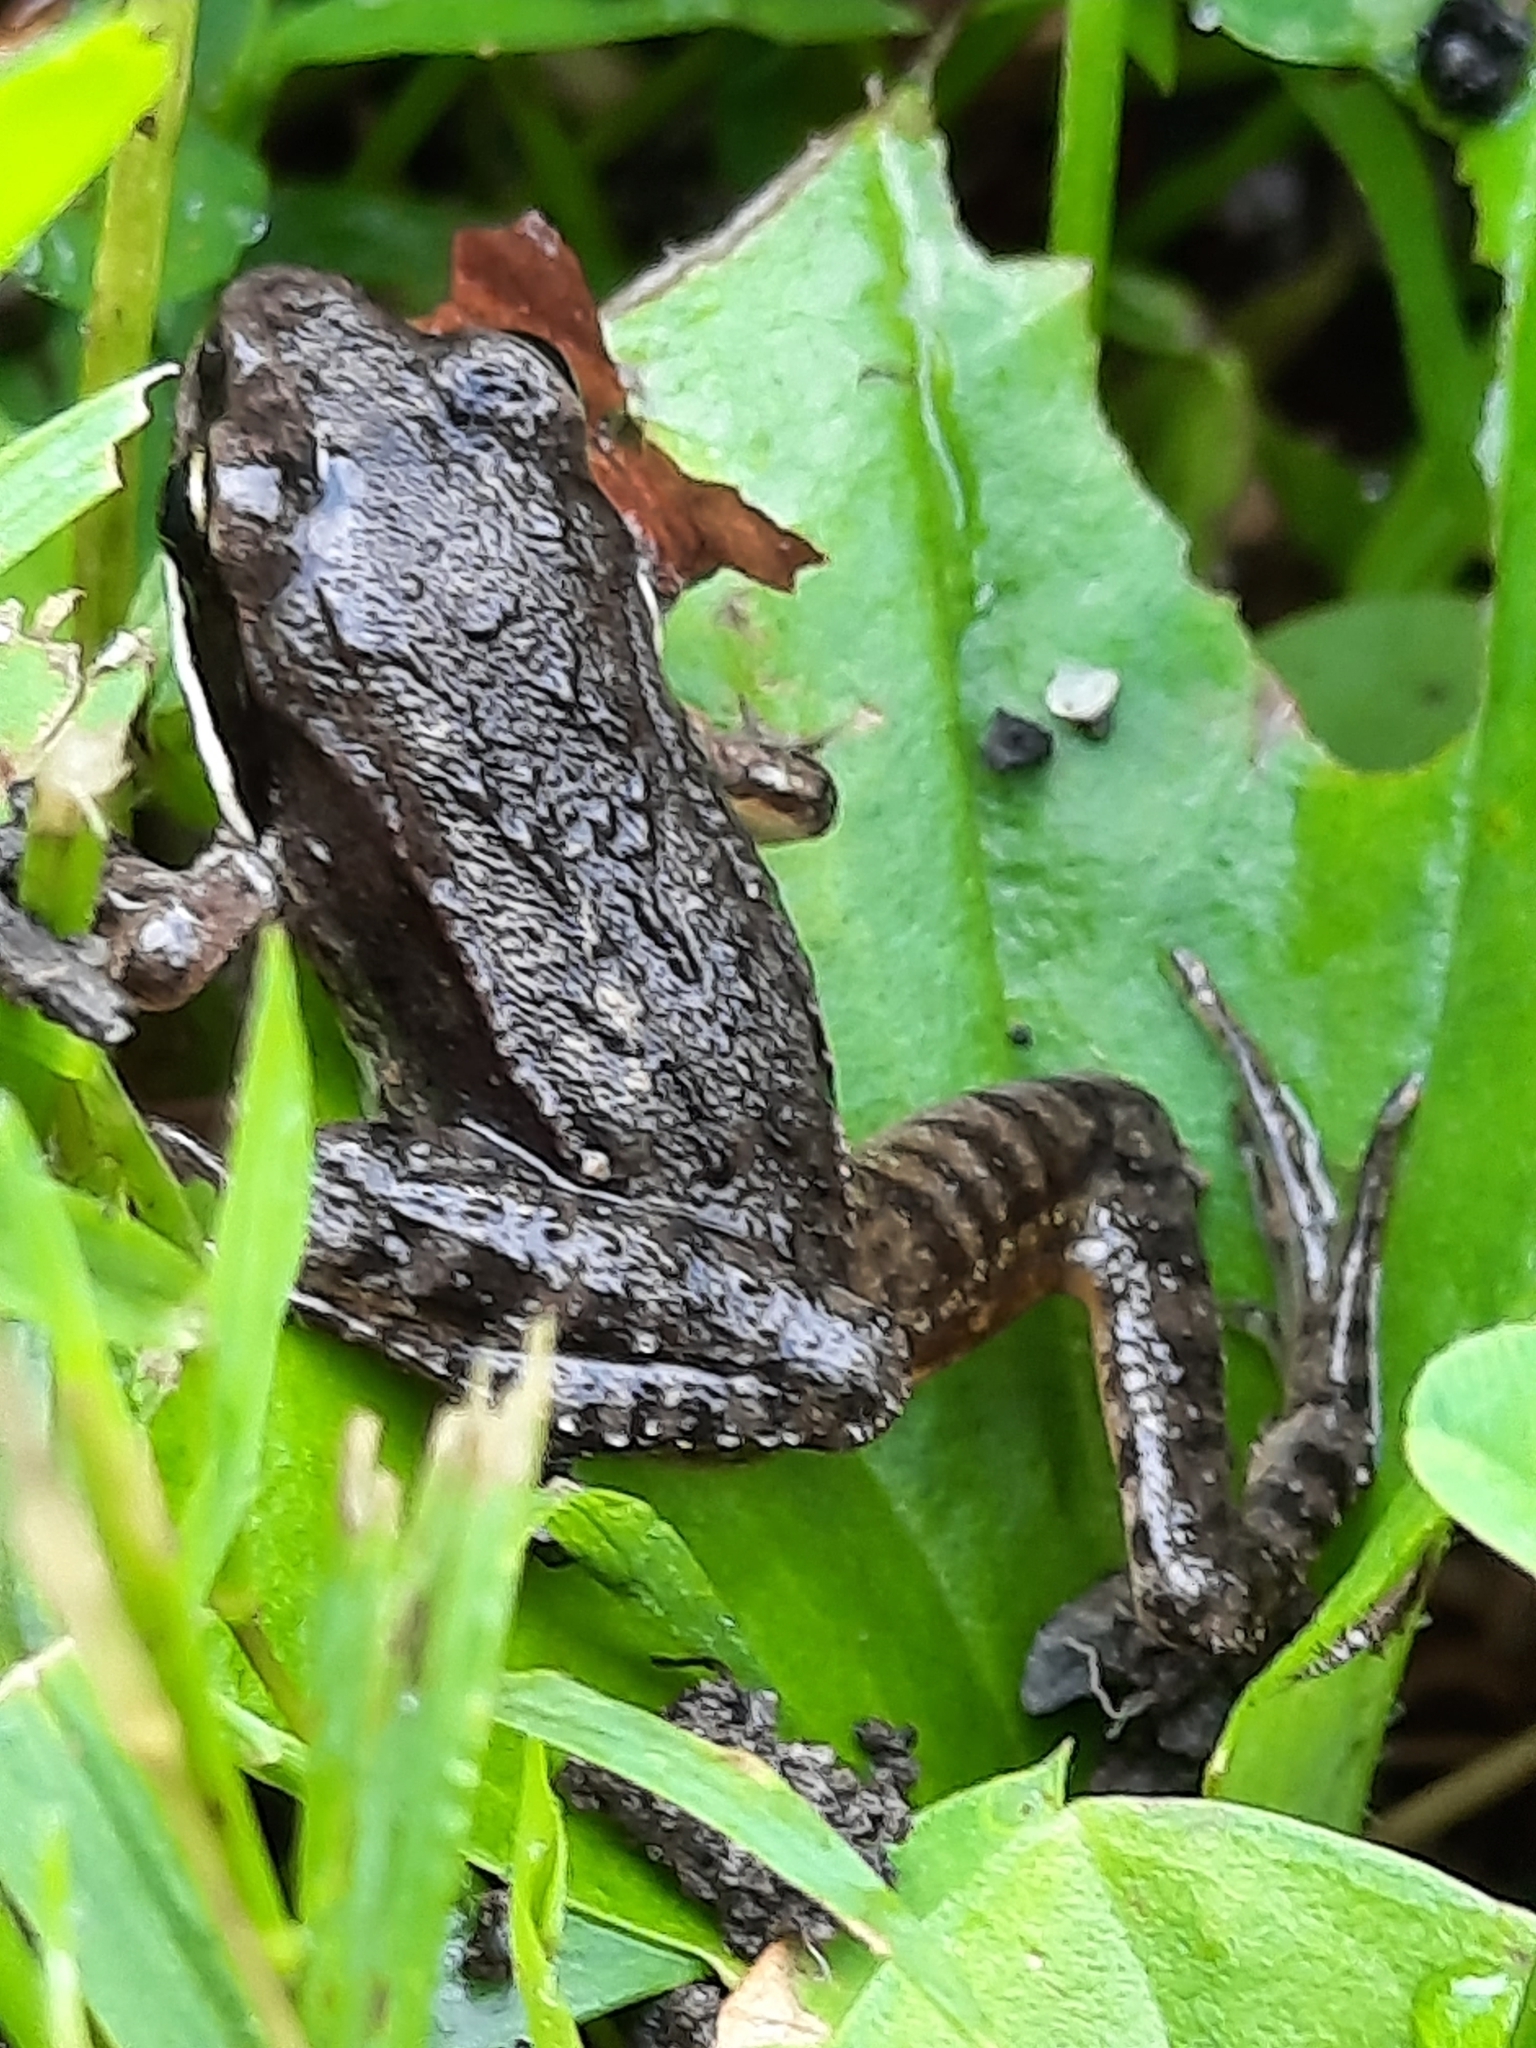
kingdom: Animalia
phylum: Chordata
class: Amphibia
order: Anura
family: Ranidae
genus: Lithobates
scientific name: Lithobates sylvaticus
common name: Wood frog
